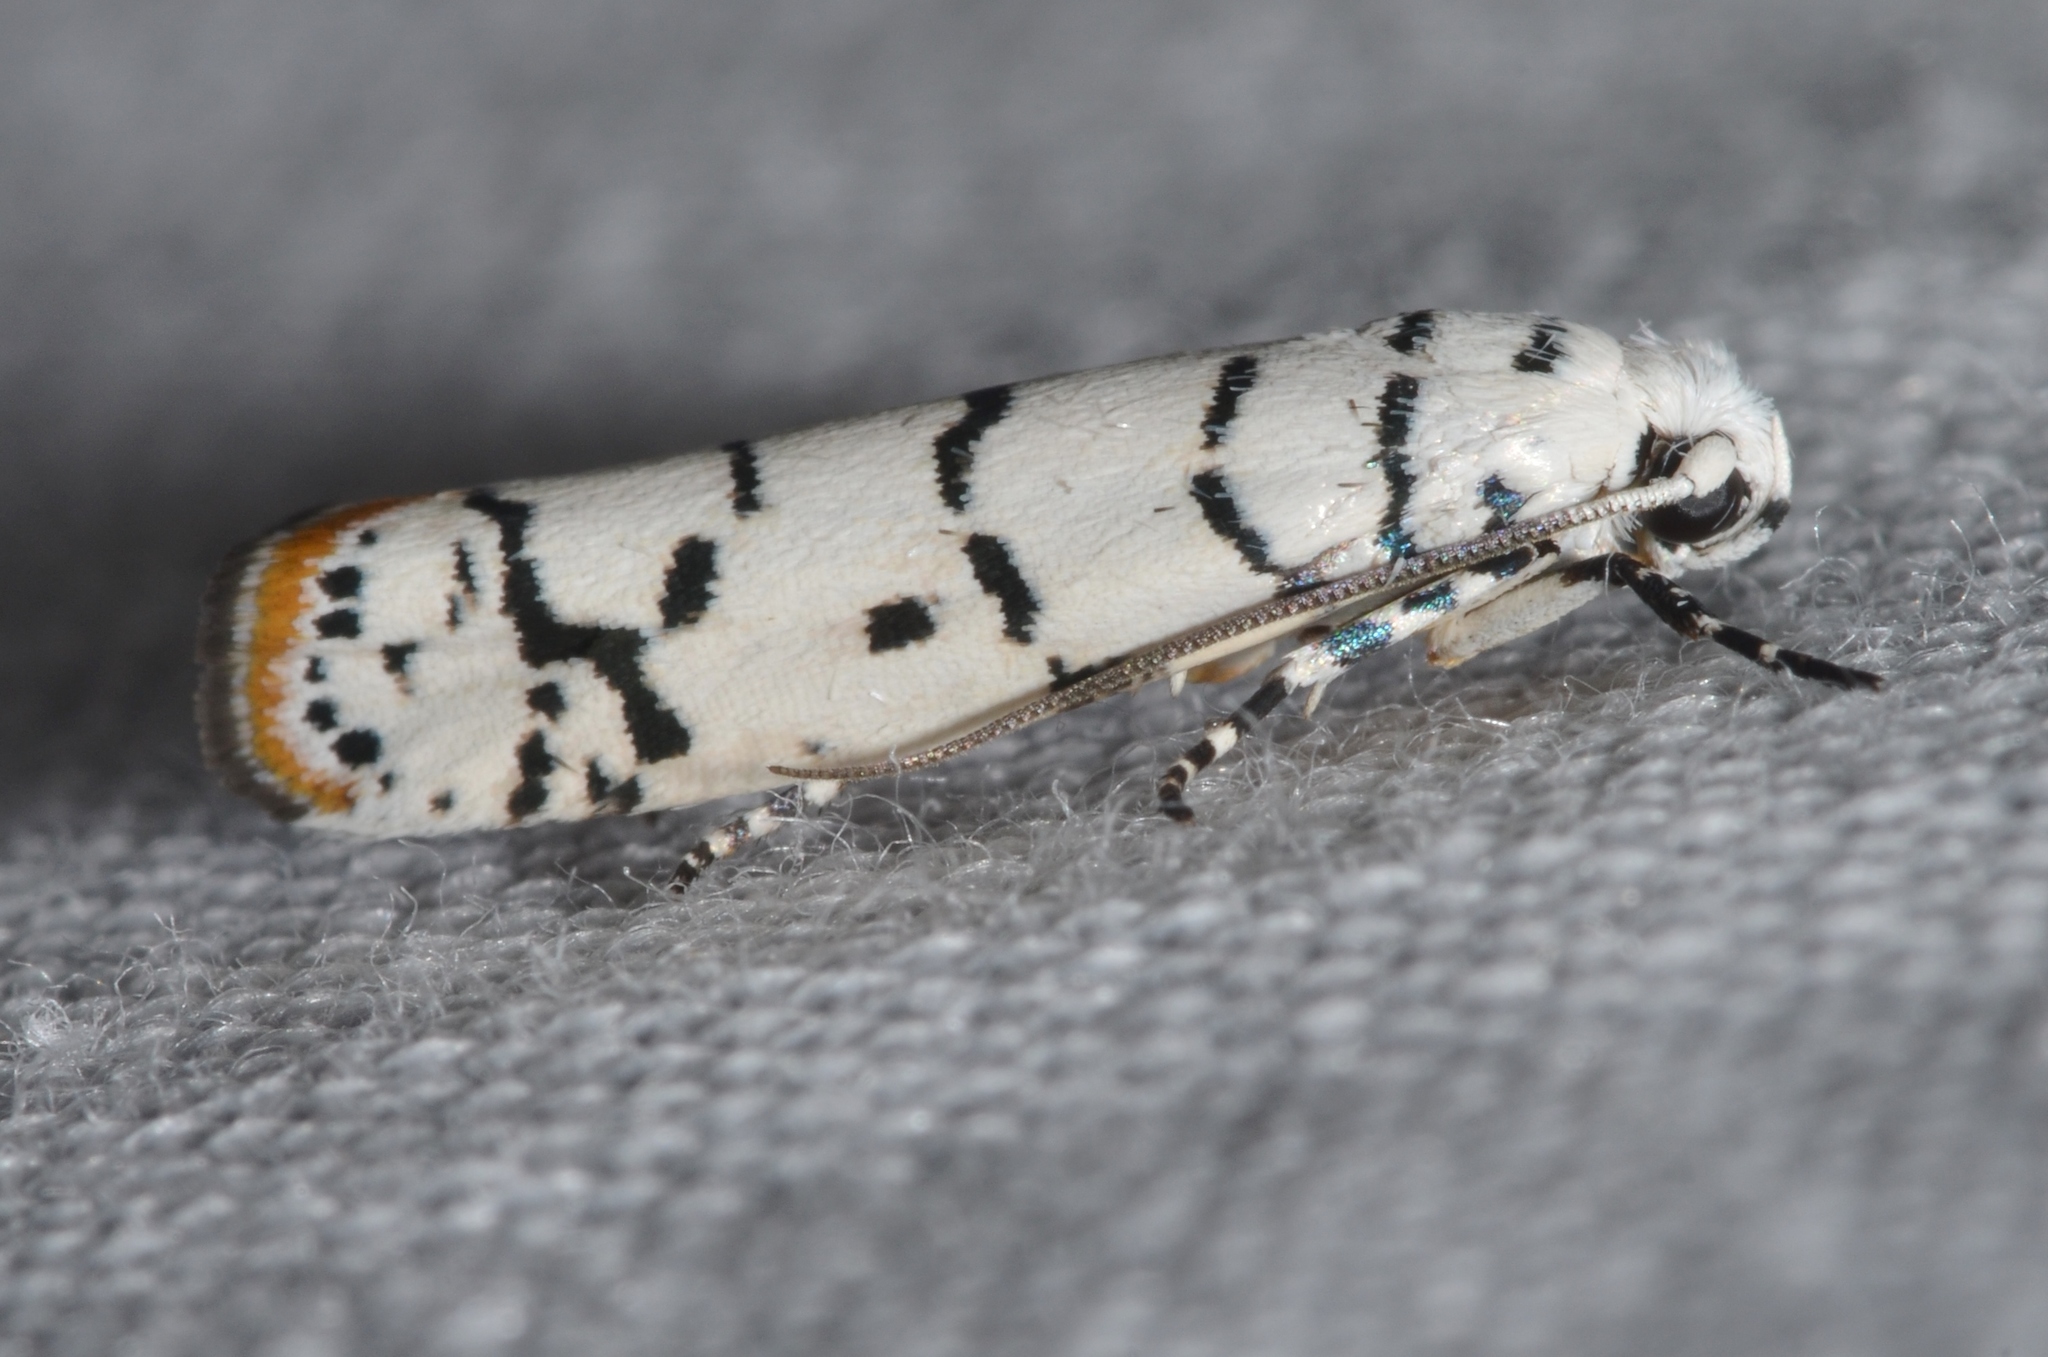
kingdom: Animalia
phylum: Arthropoda
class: Insecta
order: Lepidoptera
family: Ethmiidae
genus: Ethmia
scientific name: Ethmia delliella
